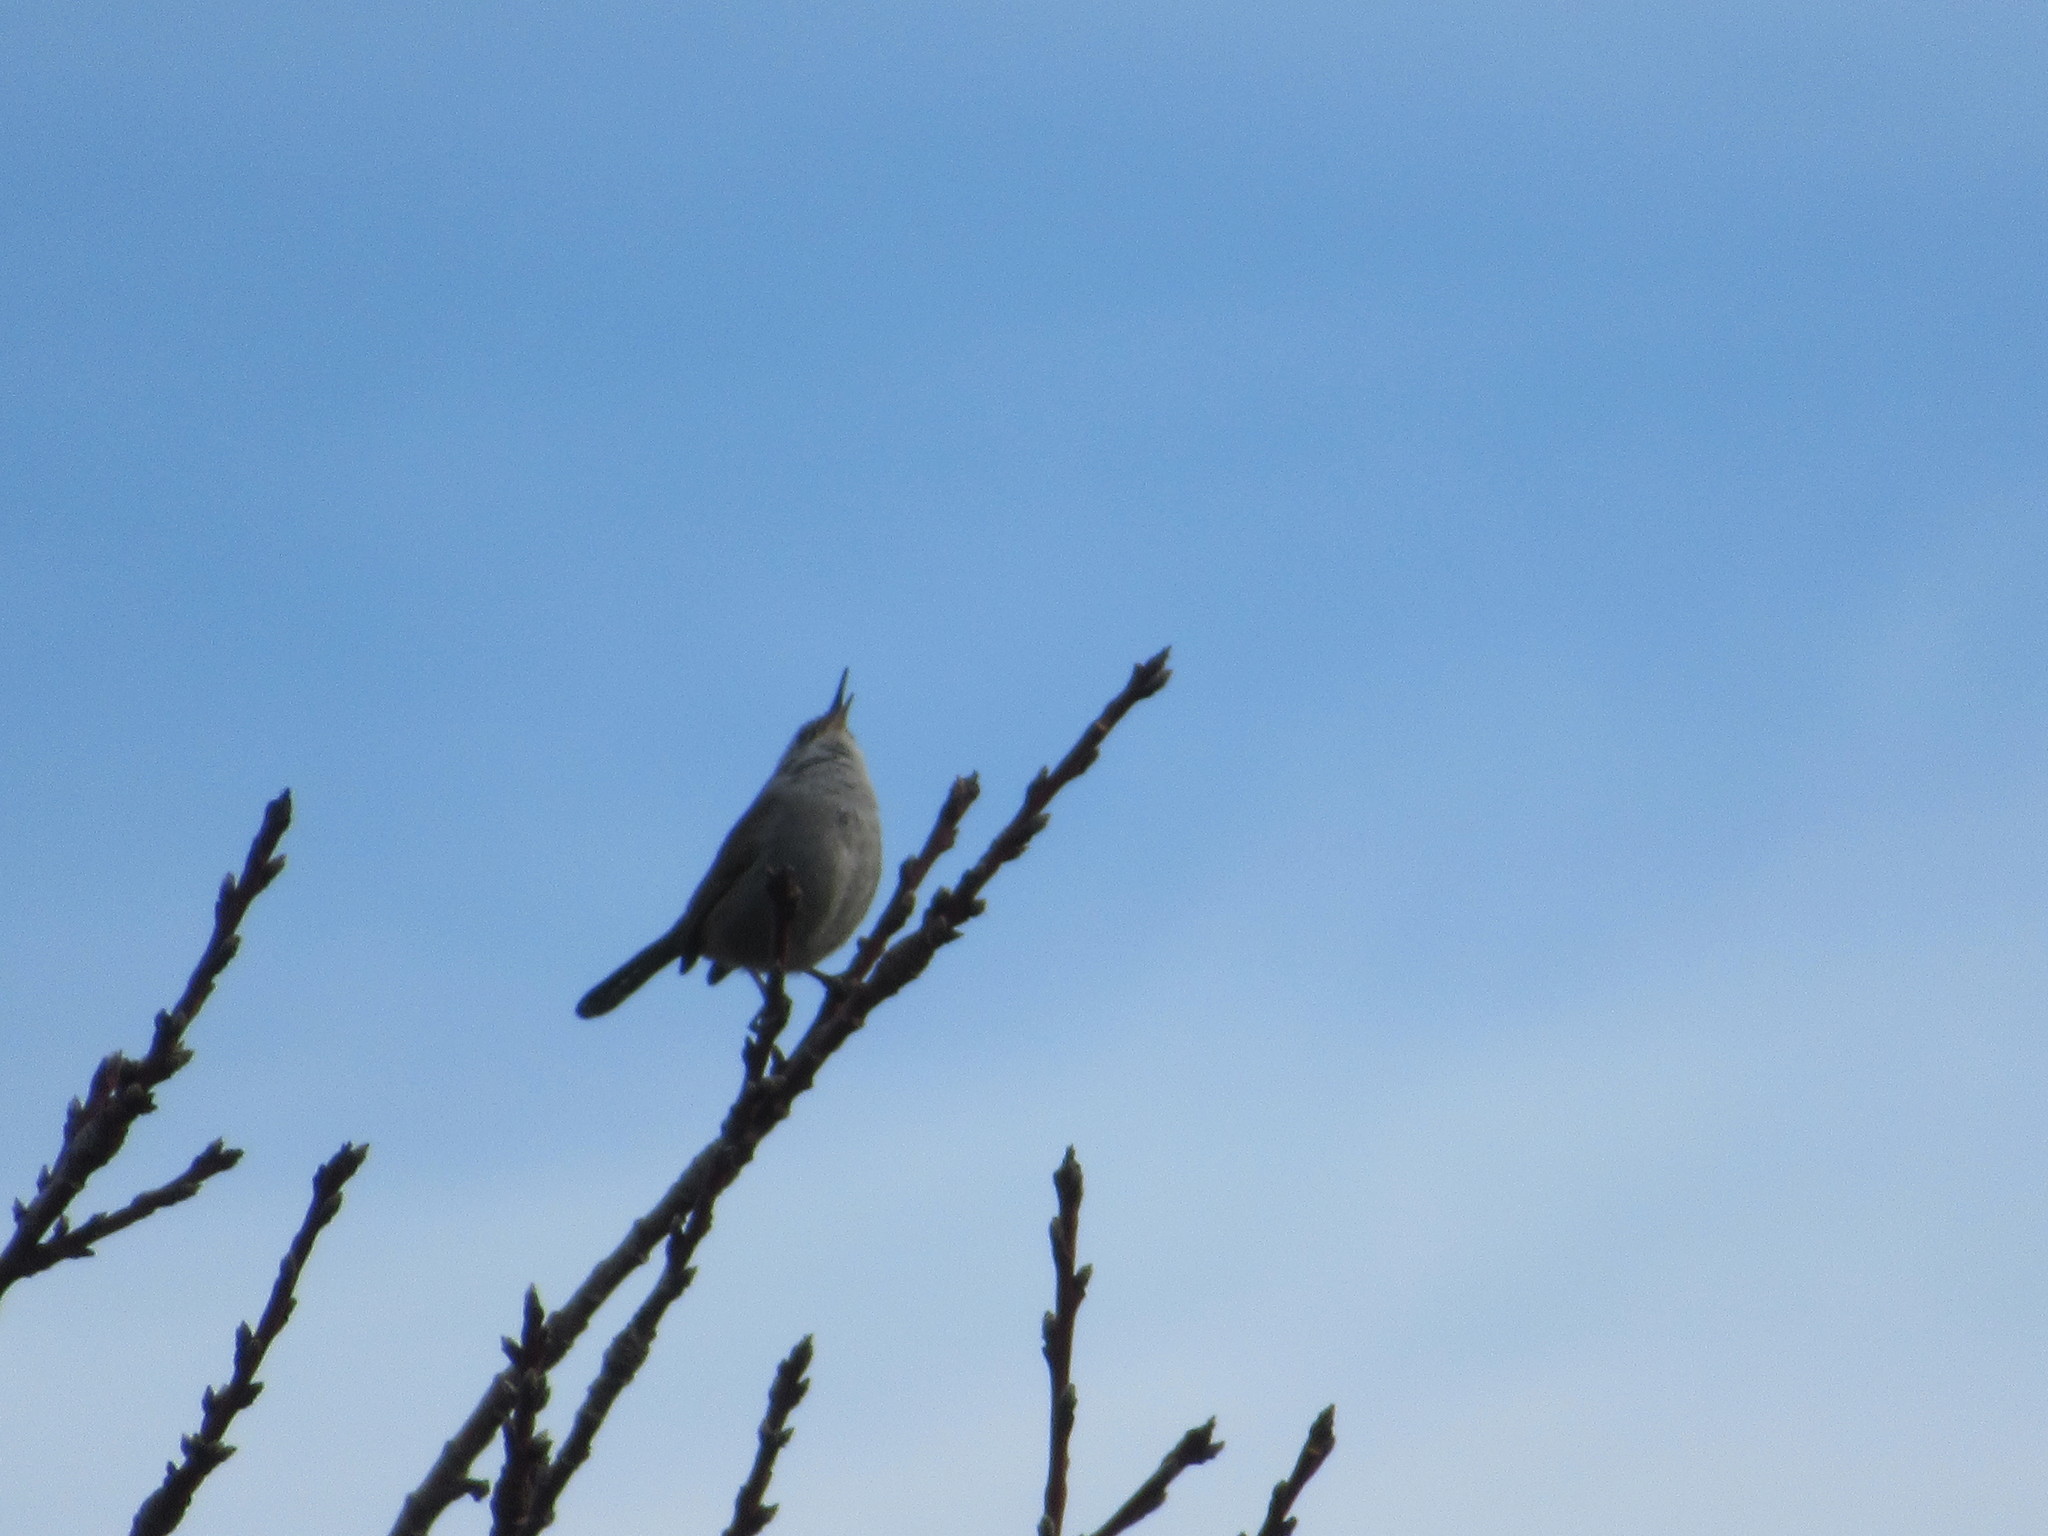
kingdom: Animalia
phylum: Chordata
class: Aves
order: Passeriformes
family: Troglodytidae
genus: Thryomanes
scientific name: Thryomanes bewickii
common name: Bewick's wren
